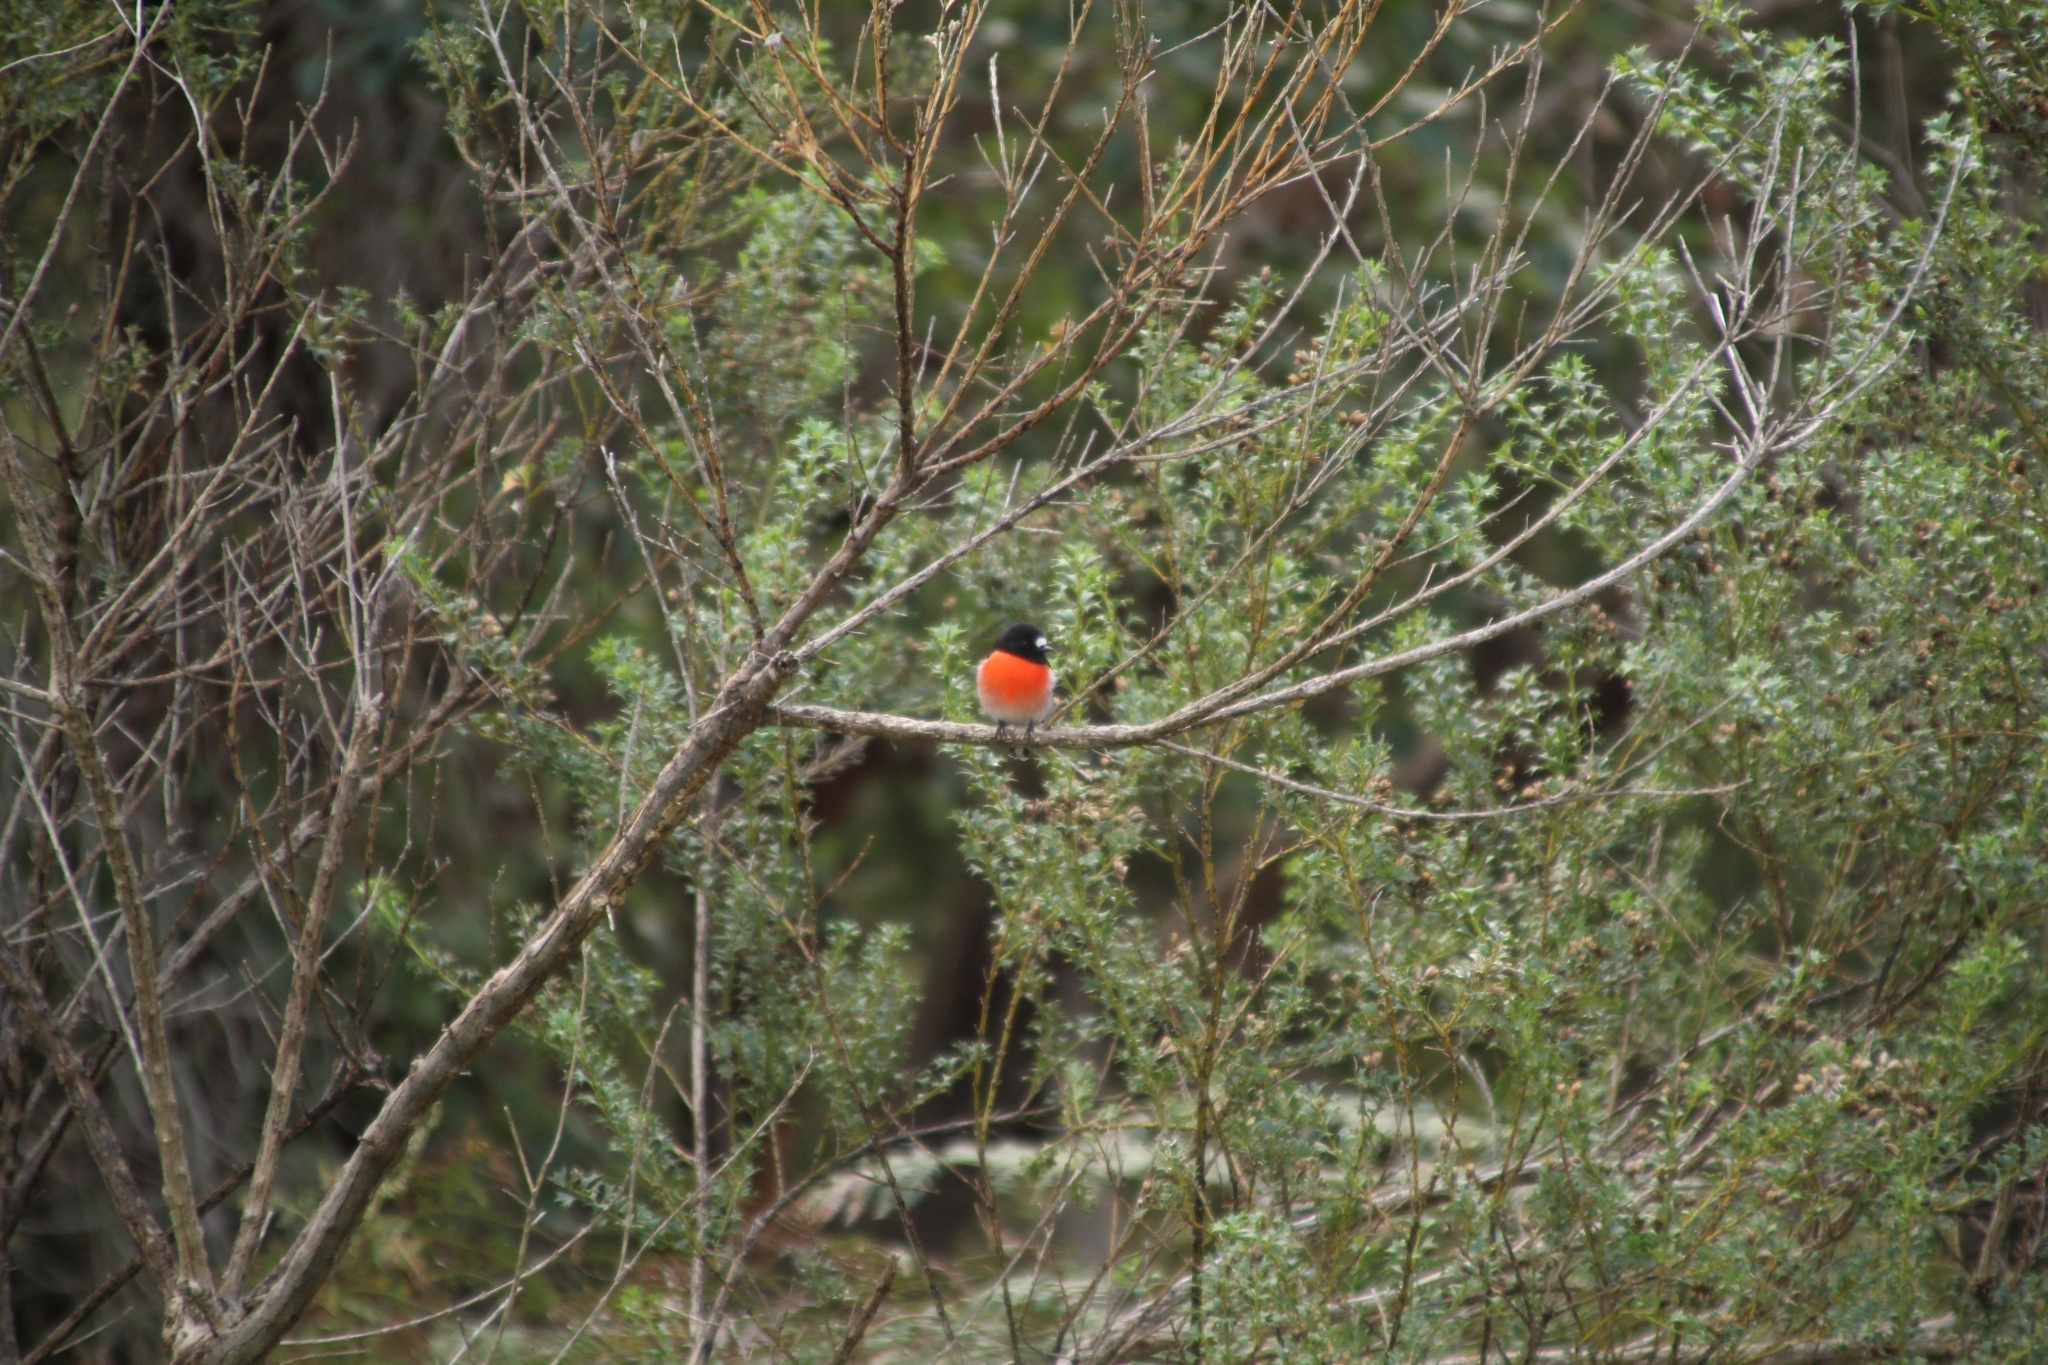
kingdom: Animalia
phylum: Chordata
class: Aves
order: Passeriformes
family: Petroicidae
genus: Petroica
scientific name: Petroica boodang
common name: Scarlet robin
